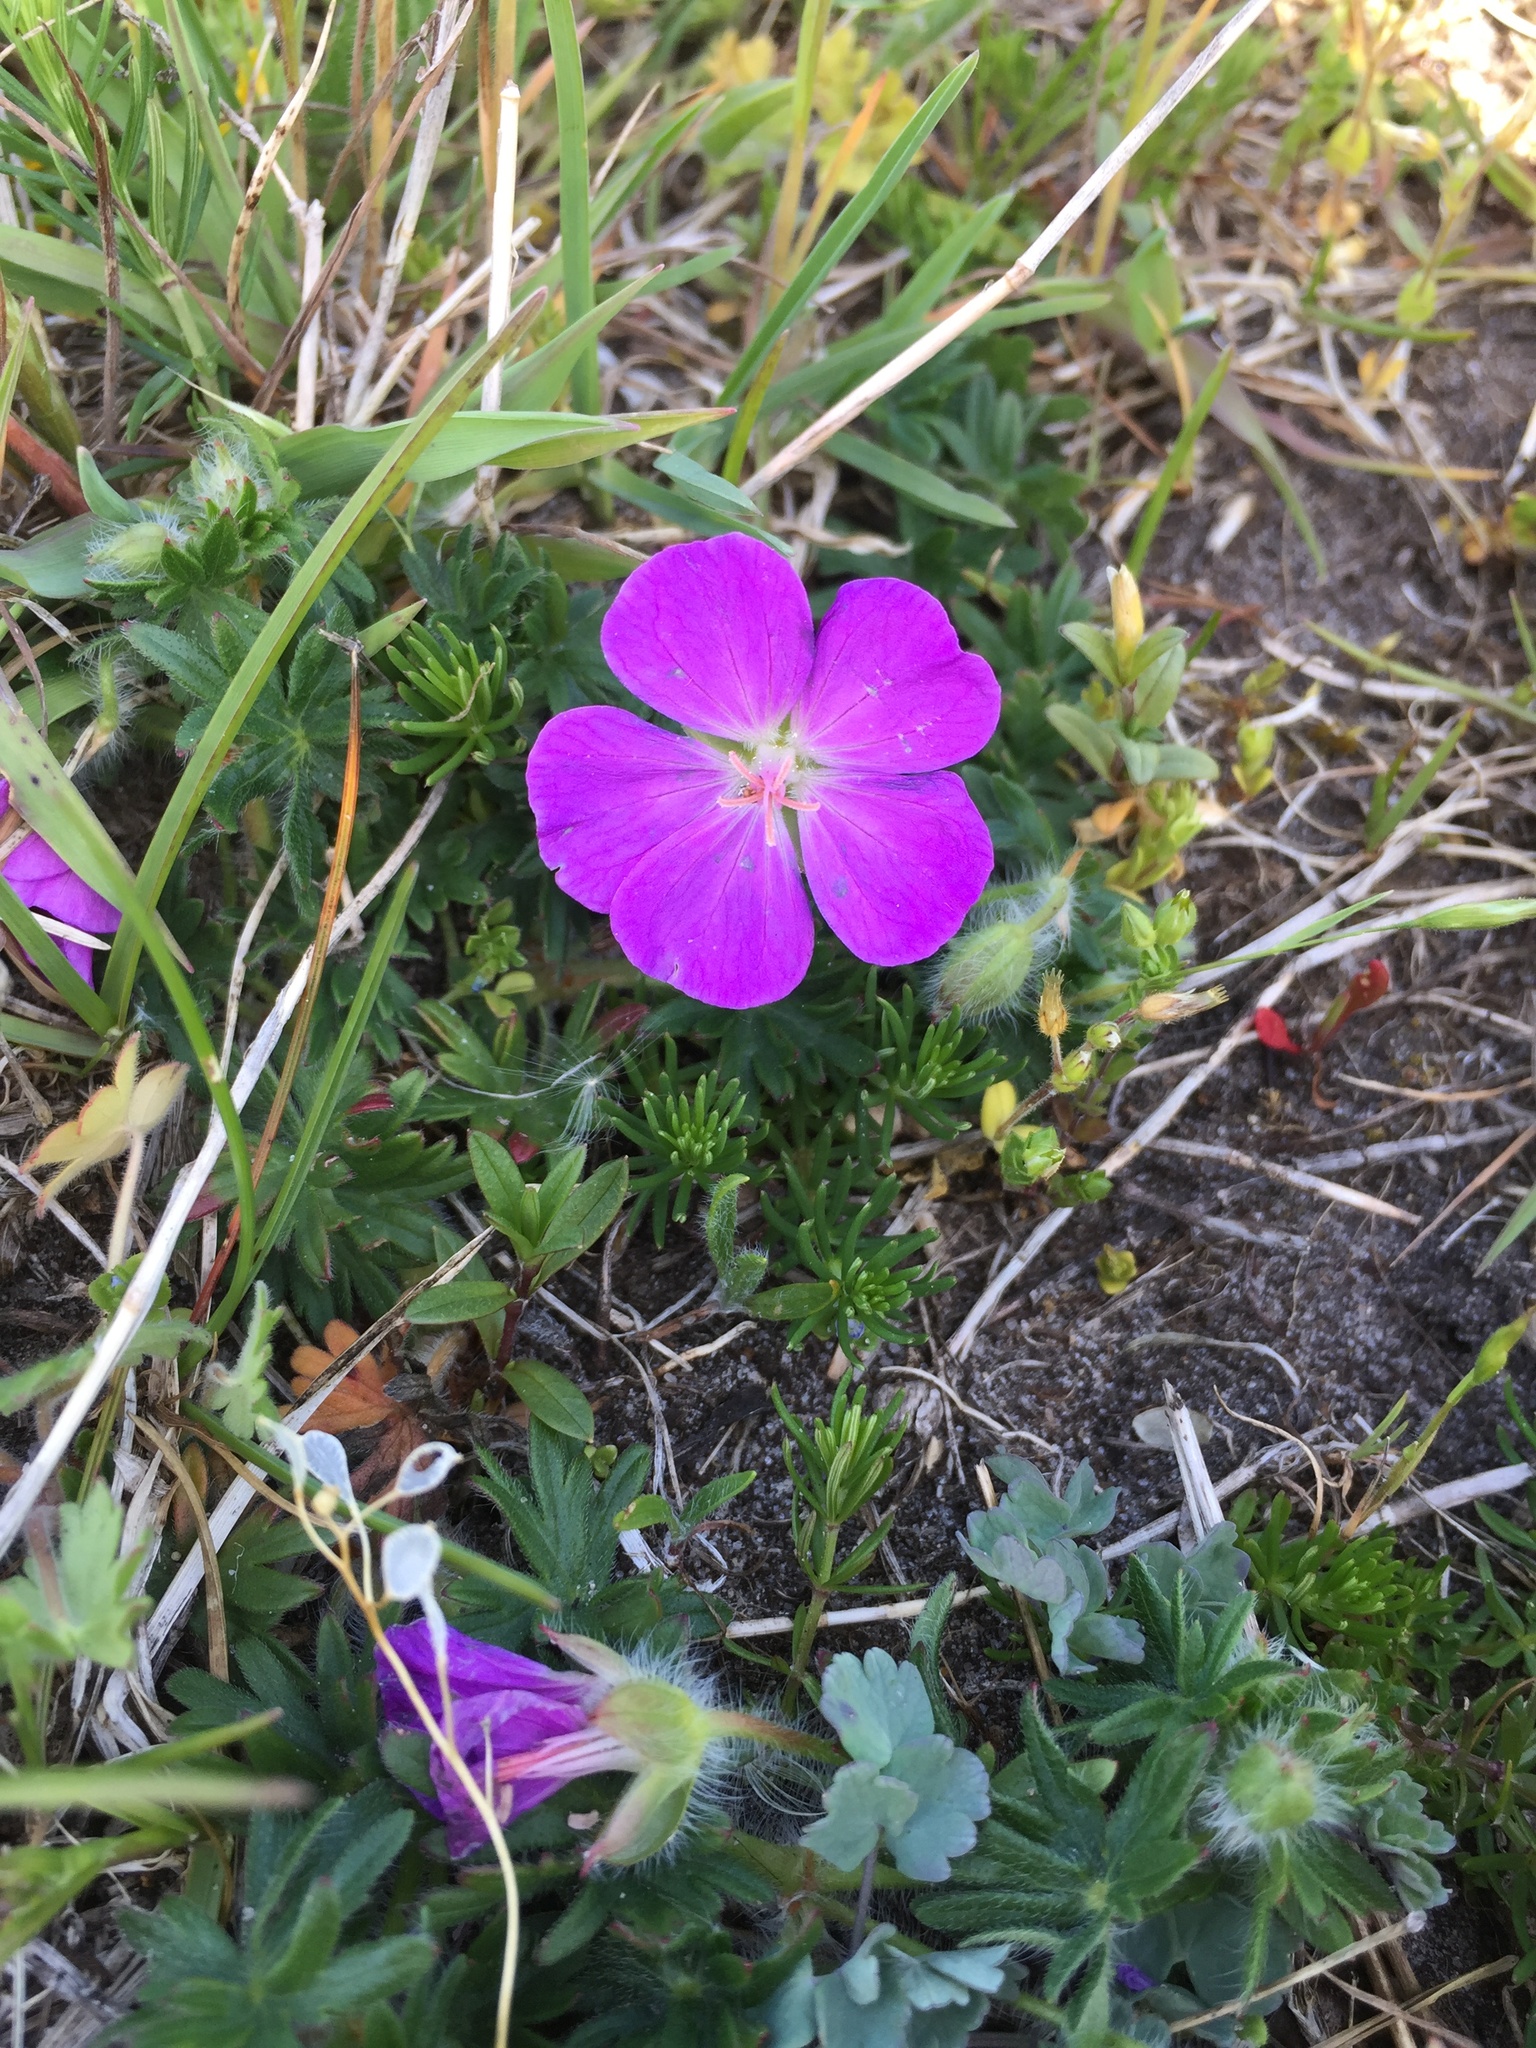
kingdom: Plantae
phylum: Tracheophyta
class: Magnoliopsida
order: Geraniales
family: Geraniaceae
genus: Geranium
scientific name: Geranium sanguineum
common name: Bloody crane's-bill
